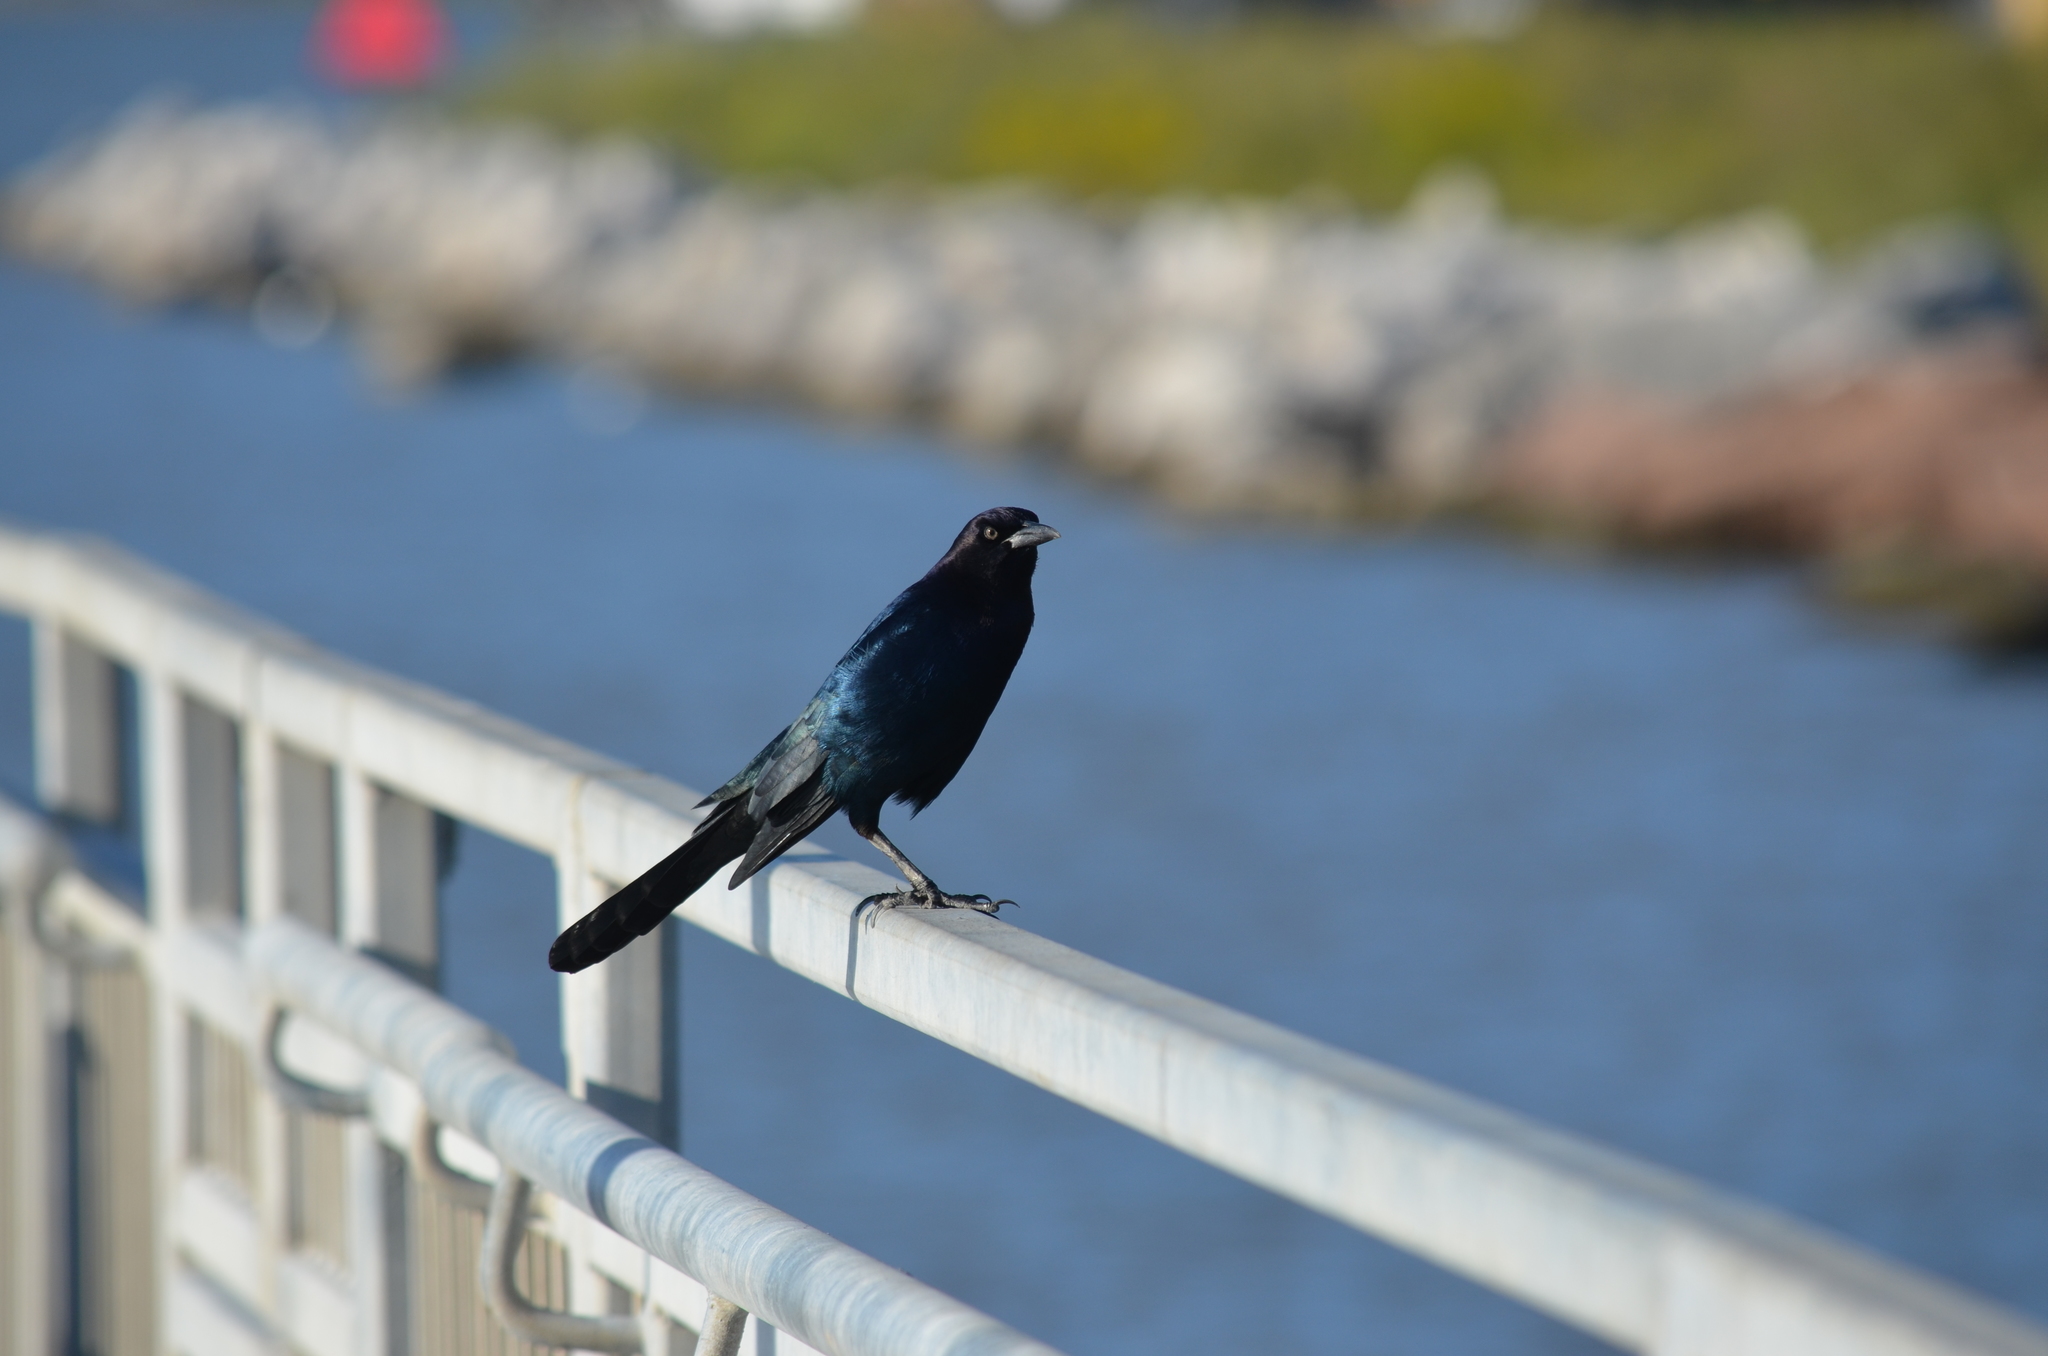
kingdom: Animalia
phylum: Chordata
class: Aves
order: Passeriformes
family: Icteridae
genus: Quiscalus
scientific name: Quiscalus major
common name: Boat-tailed grackle
